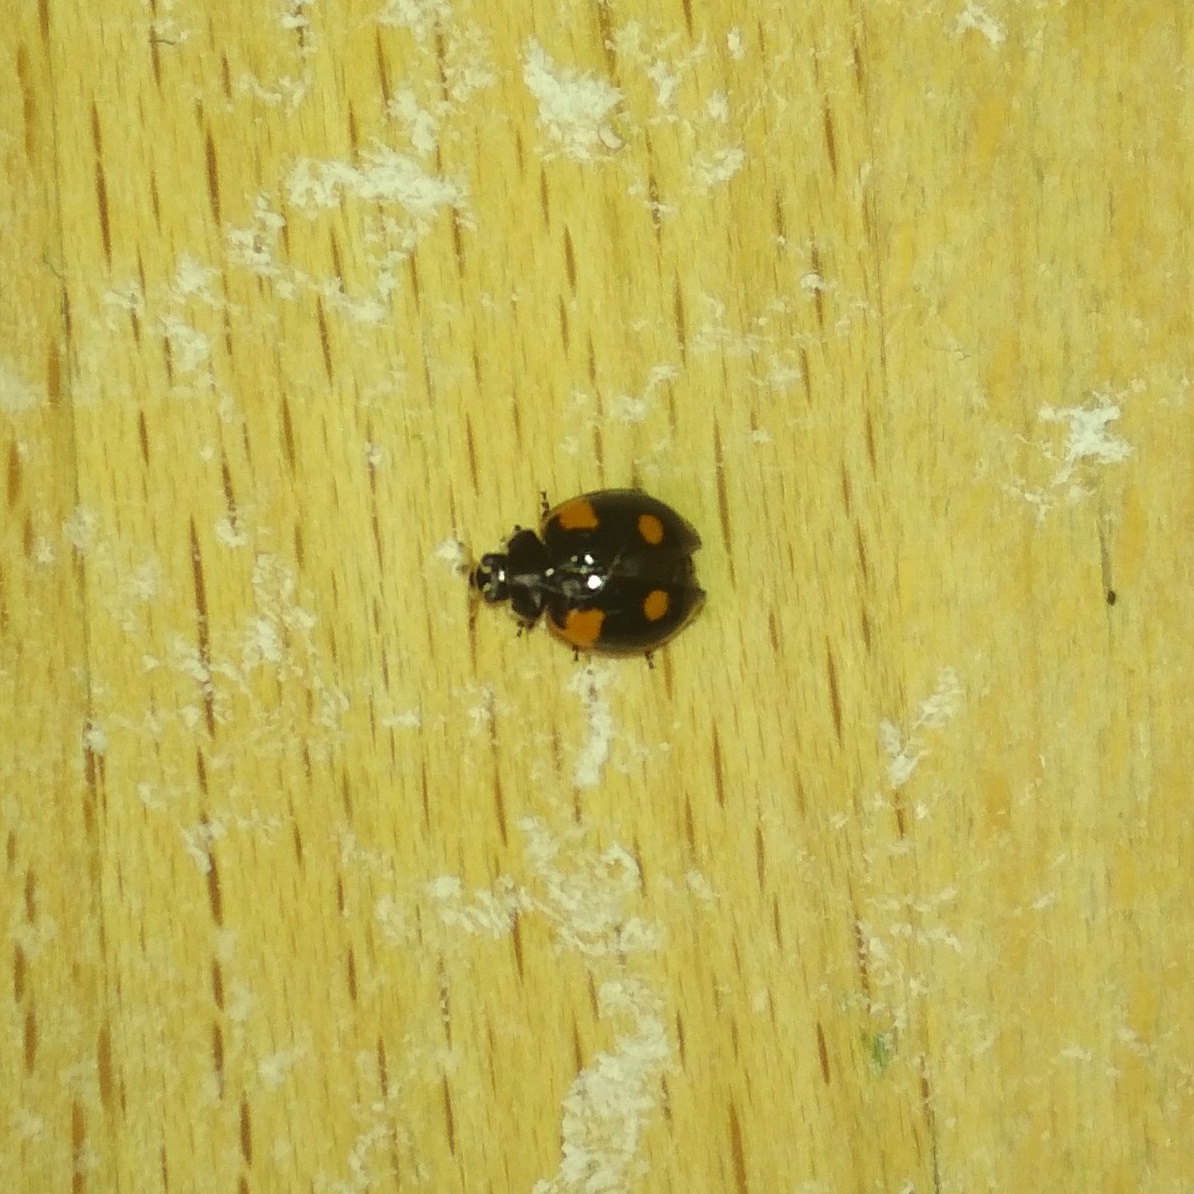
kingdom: Animalia
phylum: Arthropoda
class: Insecta
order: Coleoptera
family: Coccinellidae
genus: Adalia
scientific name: Adalia bipunctata
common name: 2-spot ladybird
